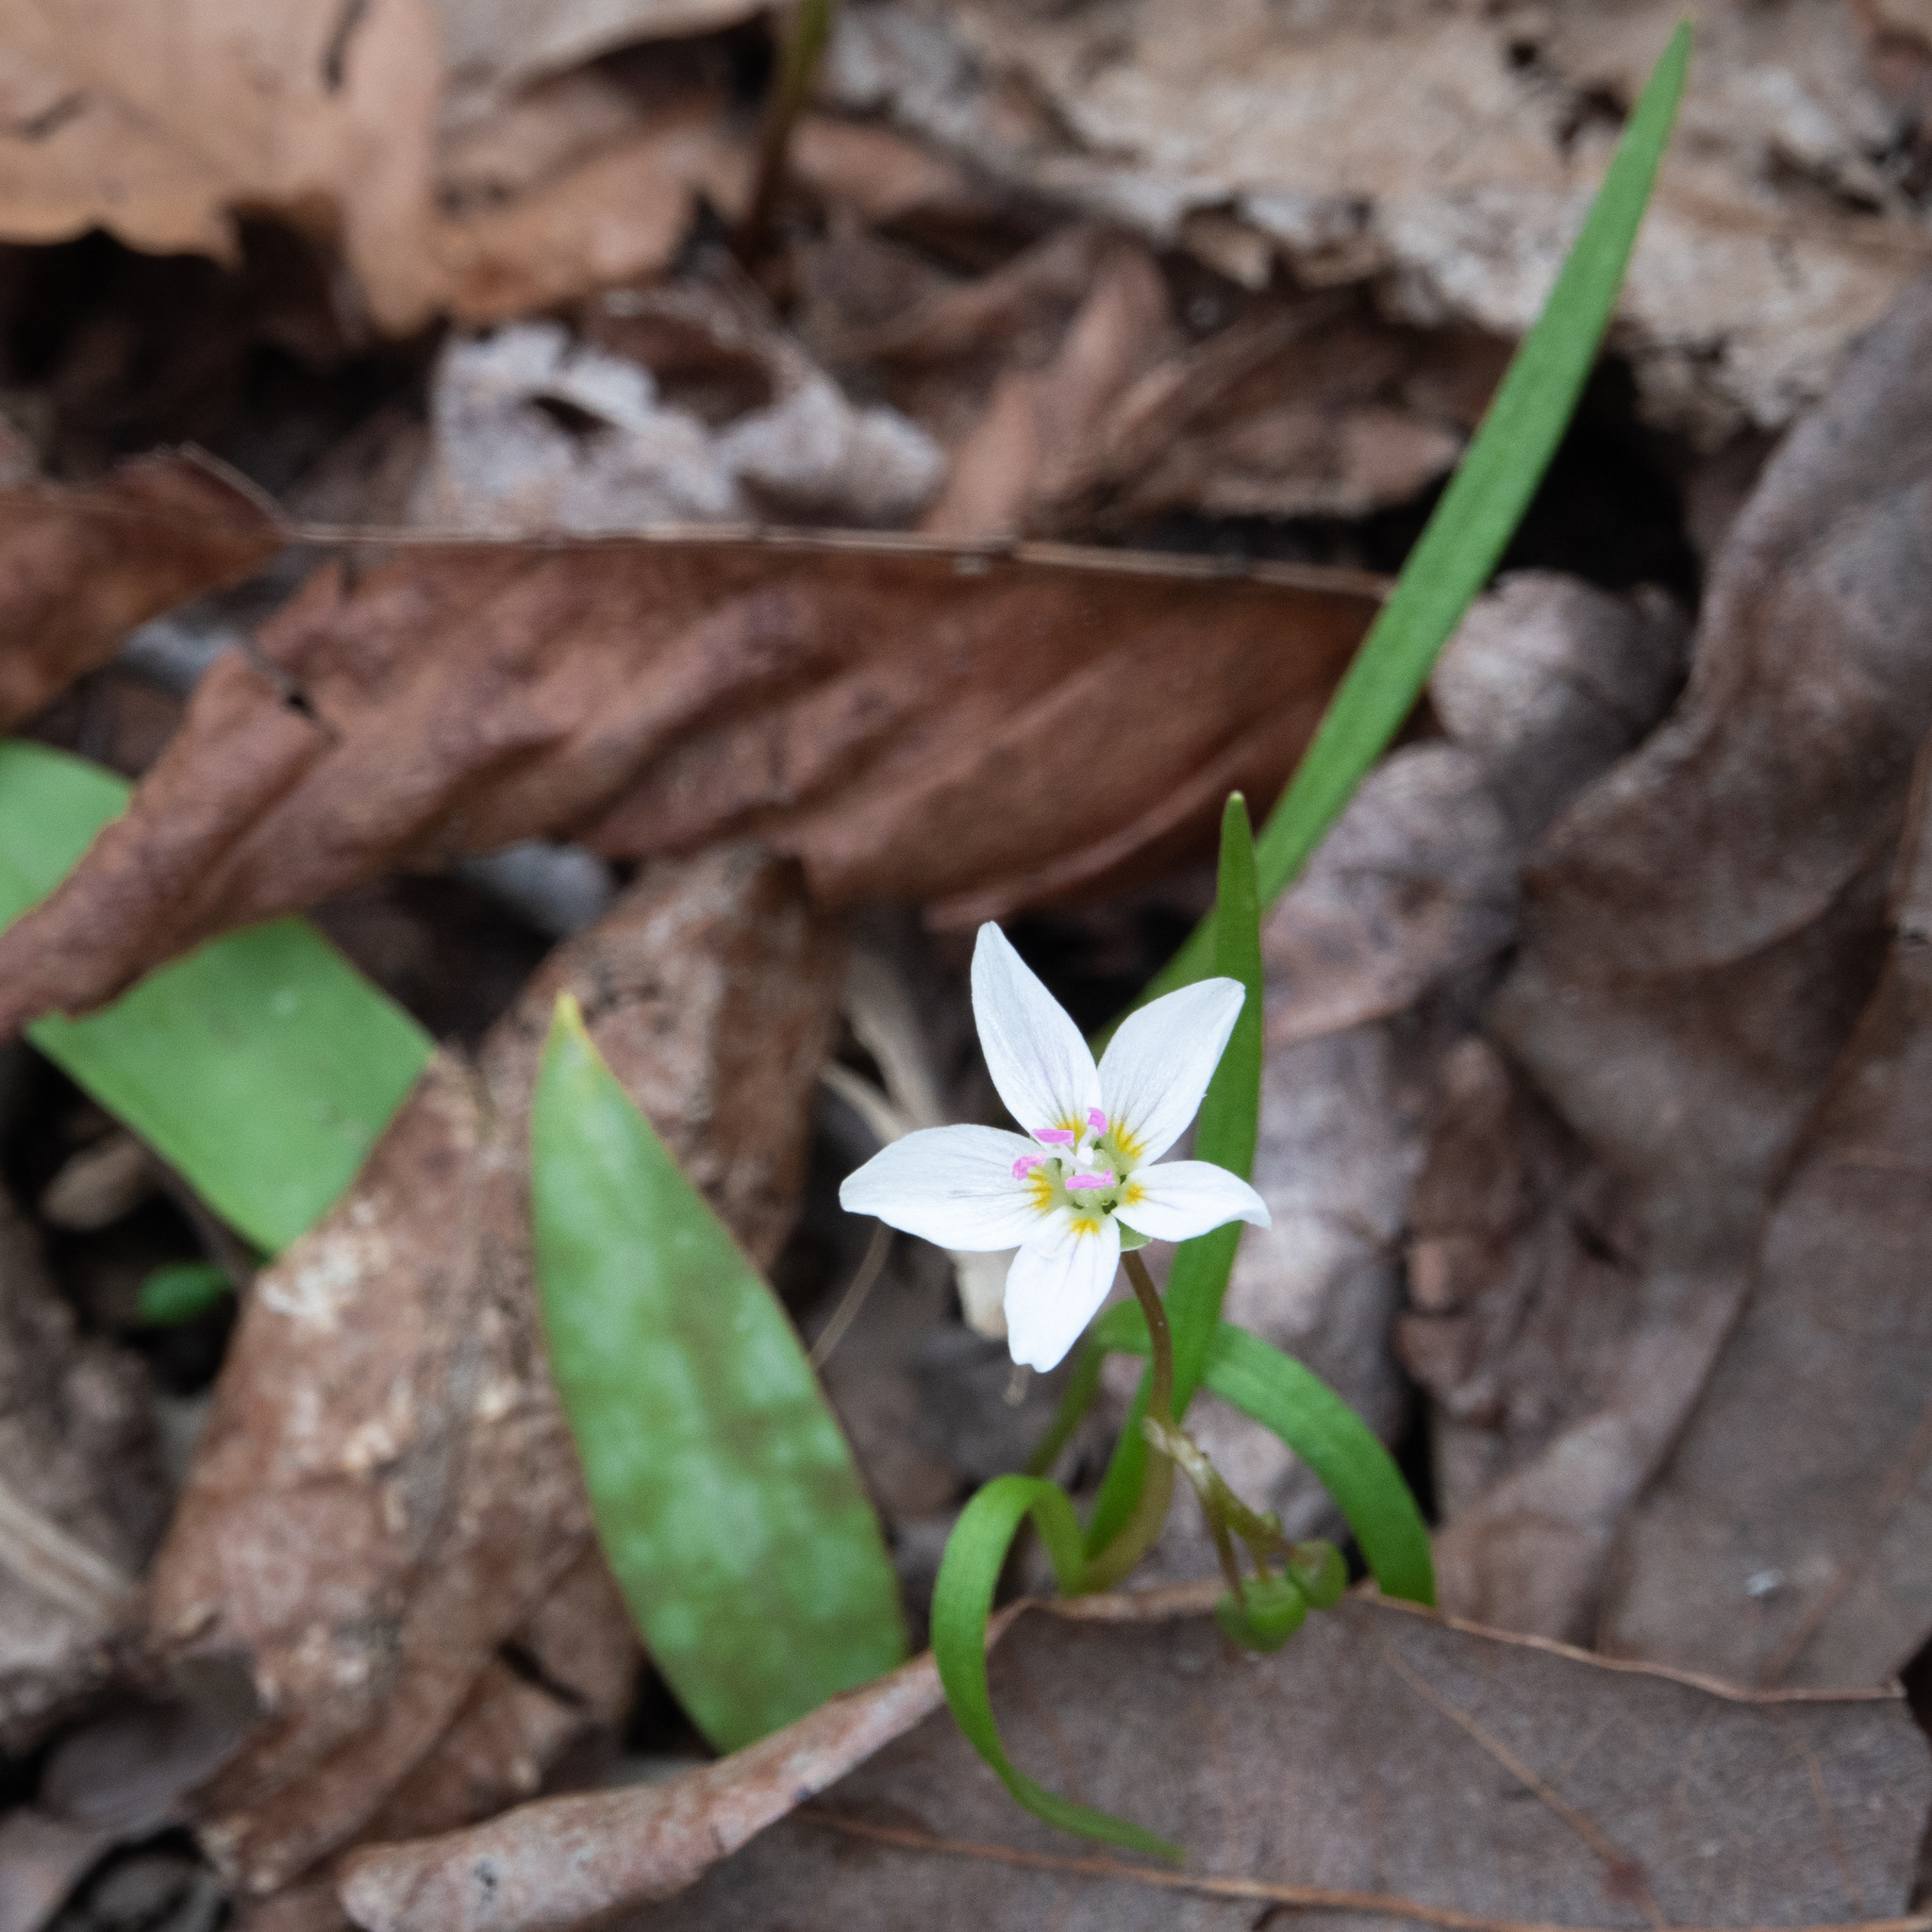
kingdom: Plantae
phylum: Tracheophyta
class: Magnoliopsida
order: Caryophyllales
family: Montiaceae
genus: Claytonia
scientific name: Claytonia virginica
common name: Virginia springbeauty
